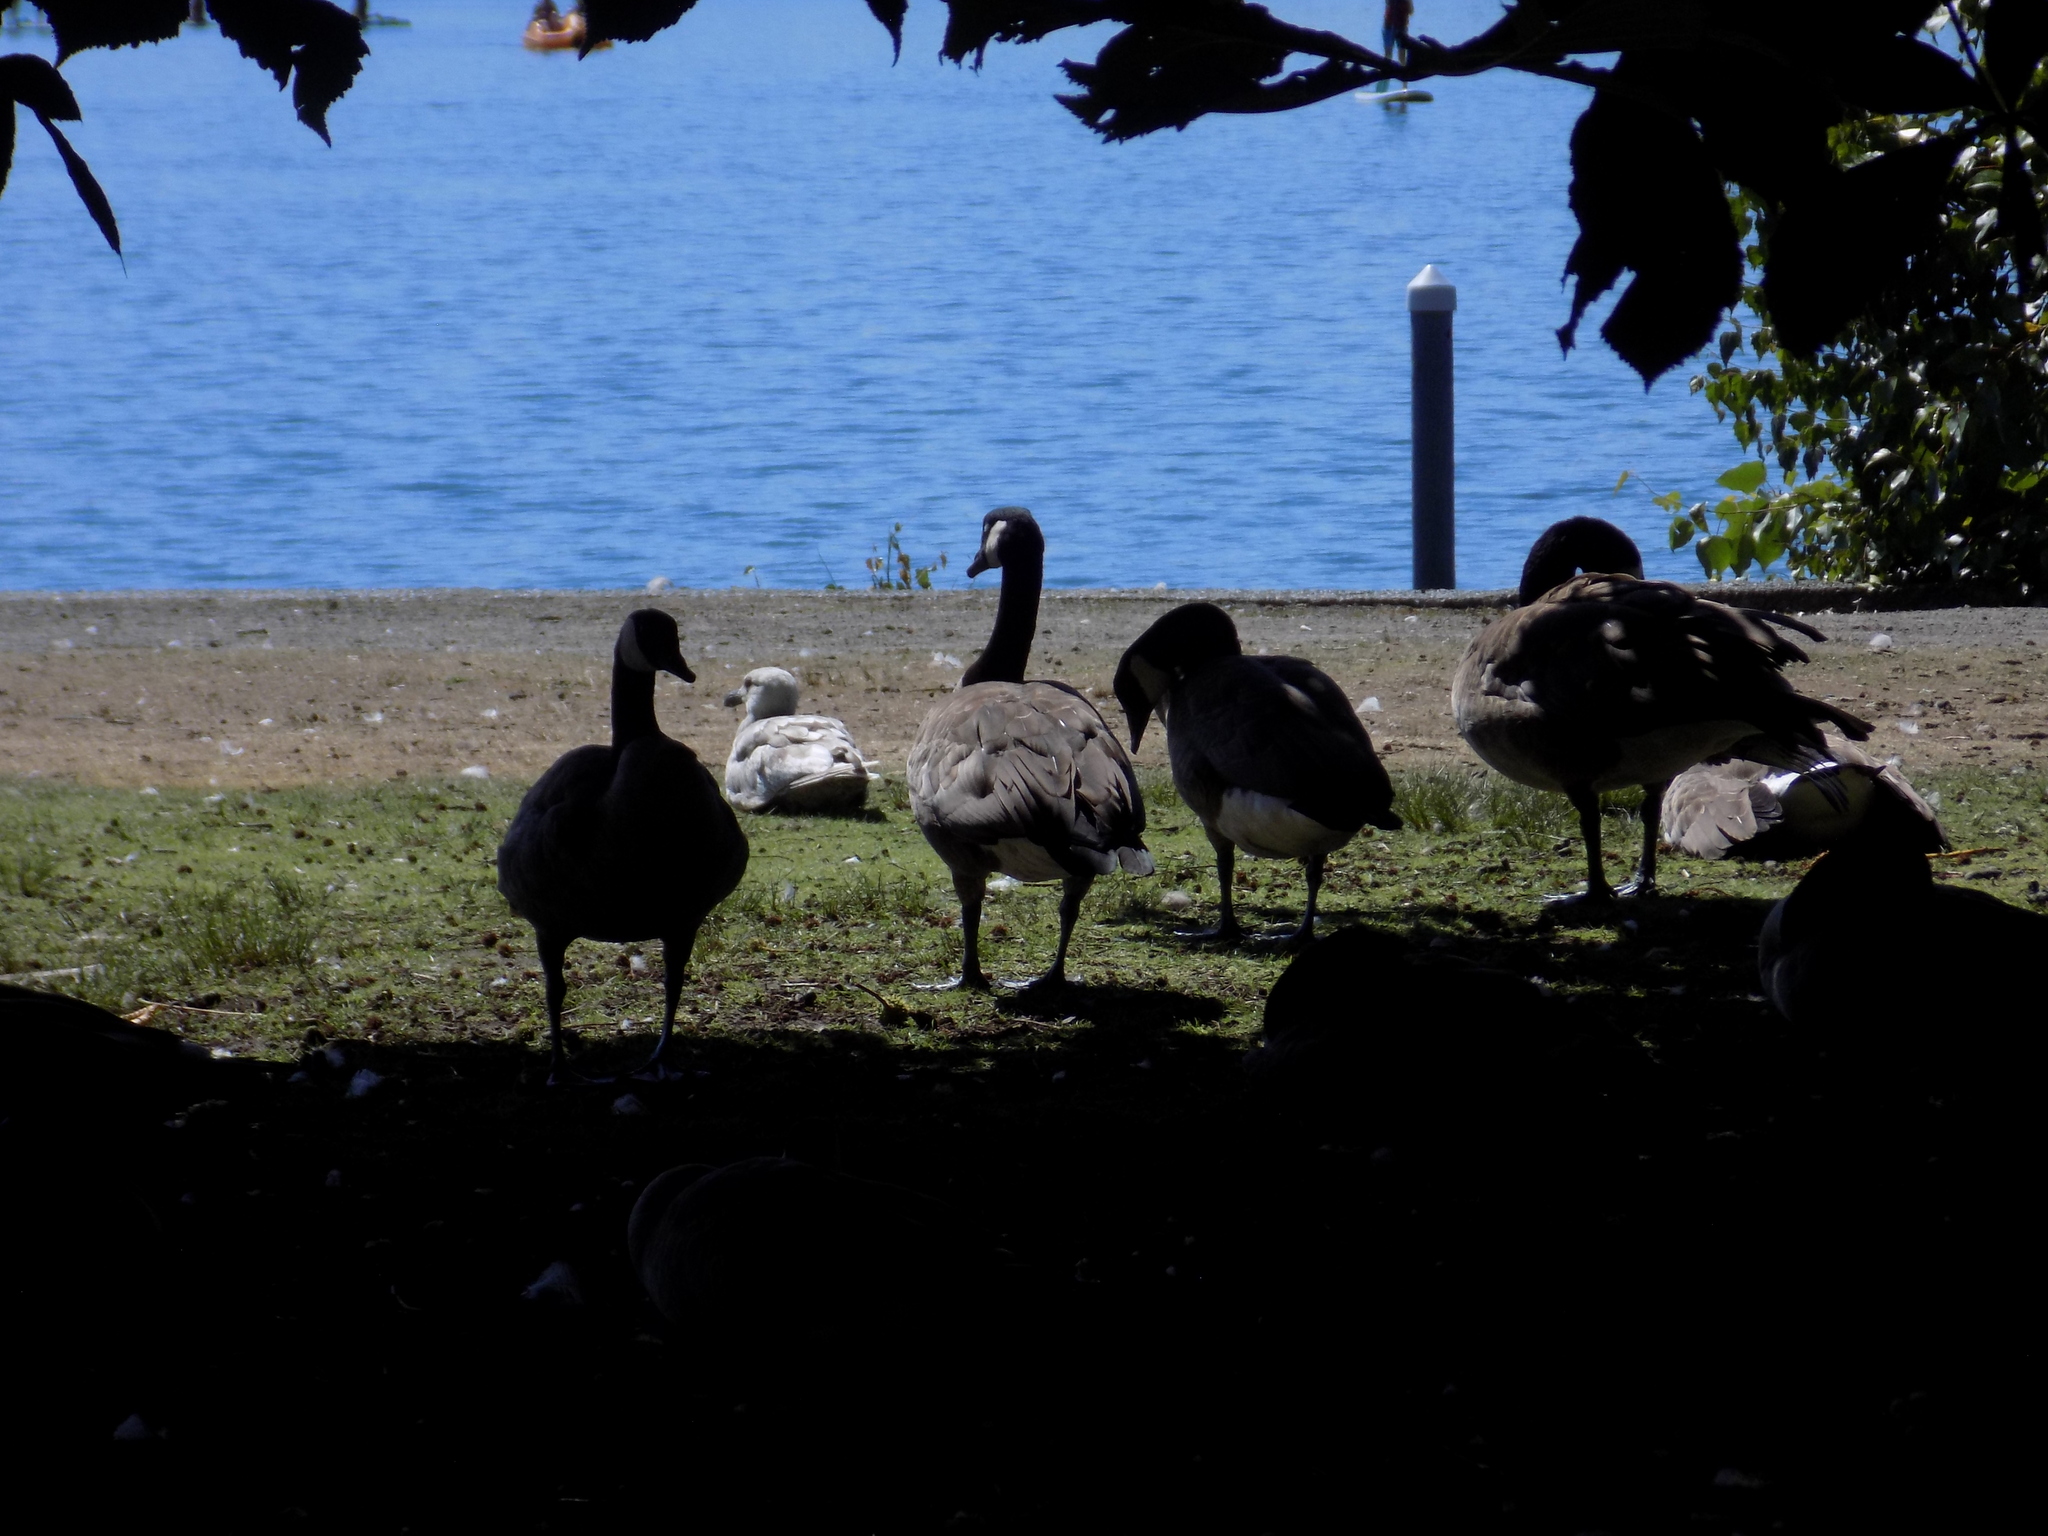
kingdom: Animalia
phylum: Chordata
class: Aves
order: Anseriformes
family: Anatidae
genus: Branta
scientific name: Branta canadensis
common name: Canada goose
